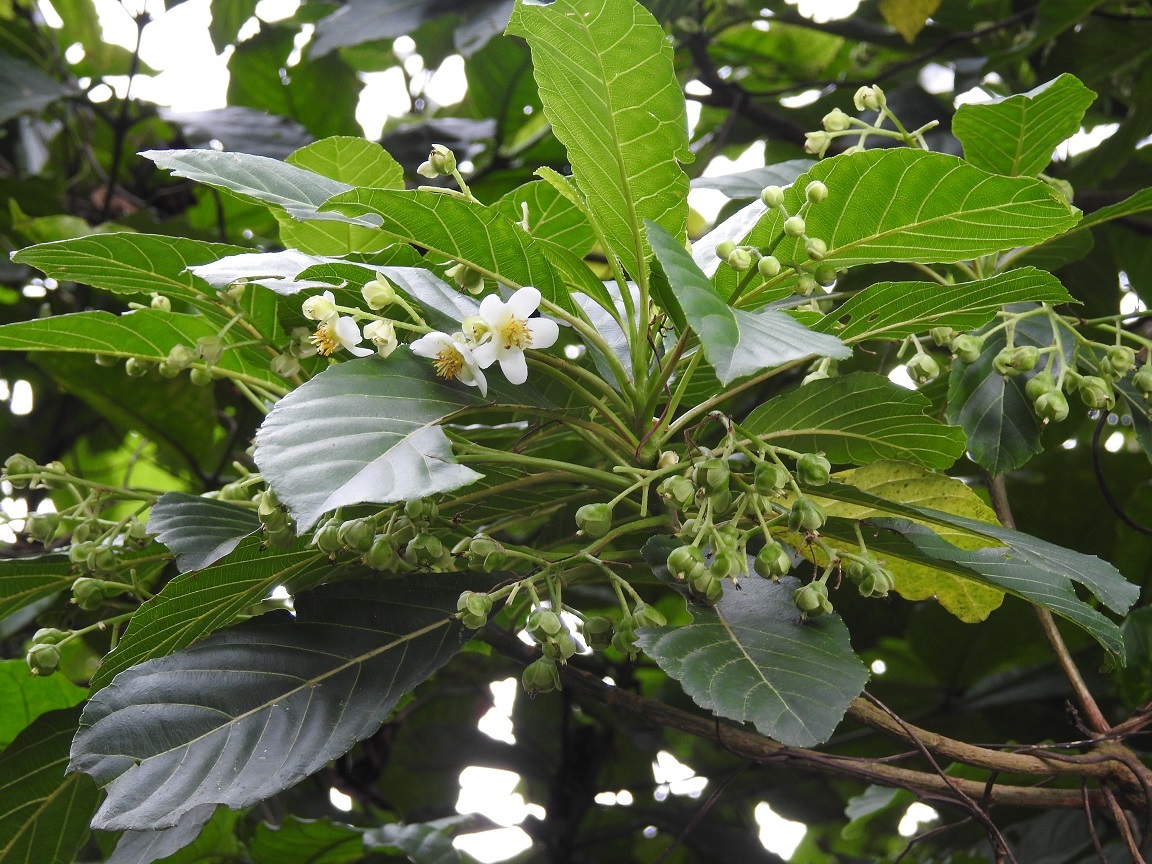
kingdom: Plantae
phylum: Tracheophyta
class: Magnoliopsida
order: Ericales
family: Actinidiaceae
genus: Saurauia
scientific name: Saurauia yasicae
